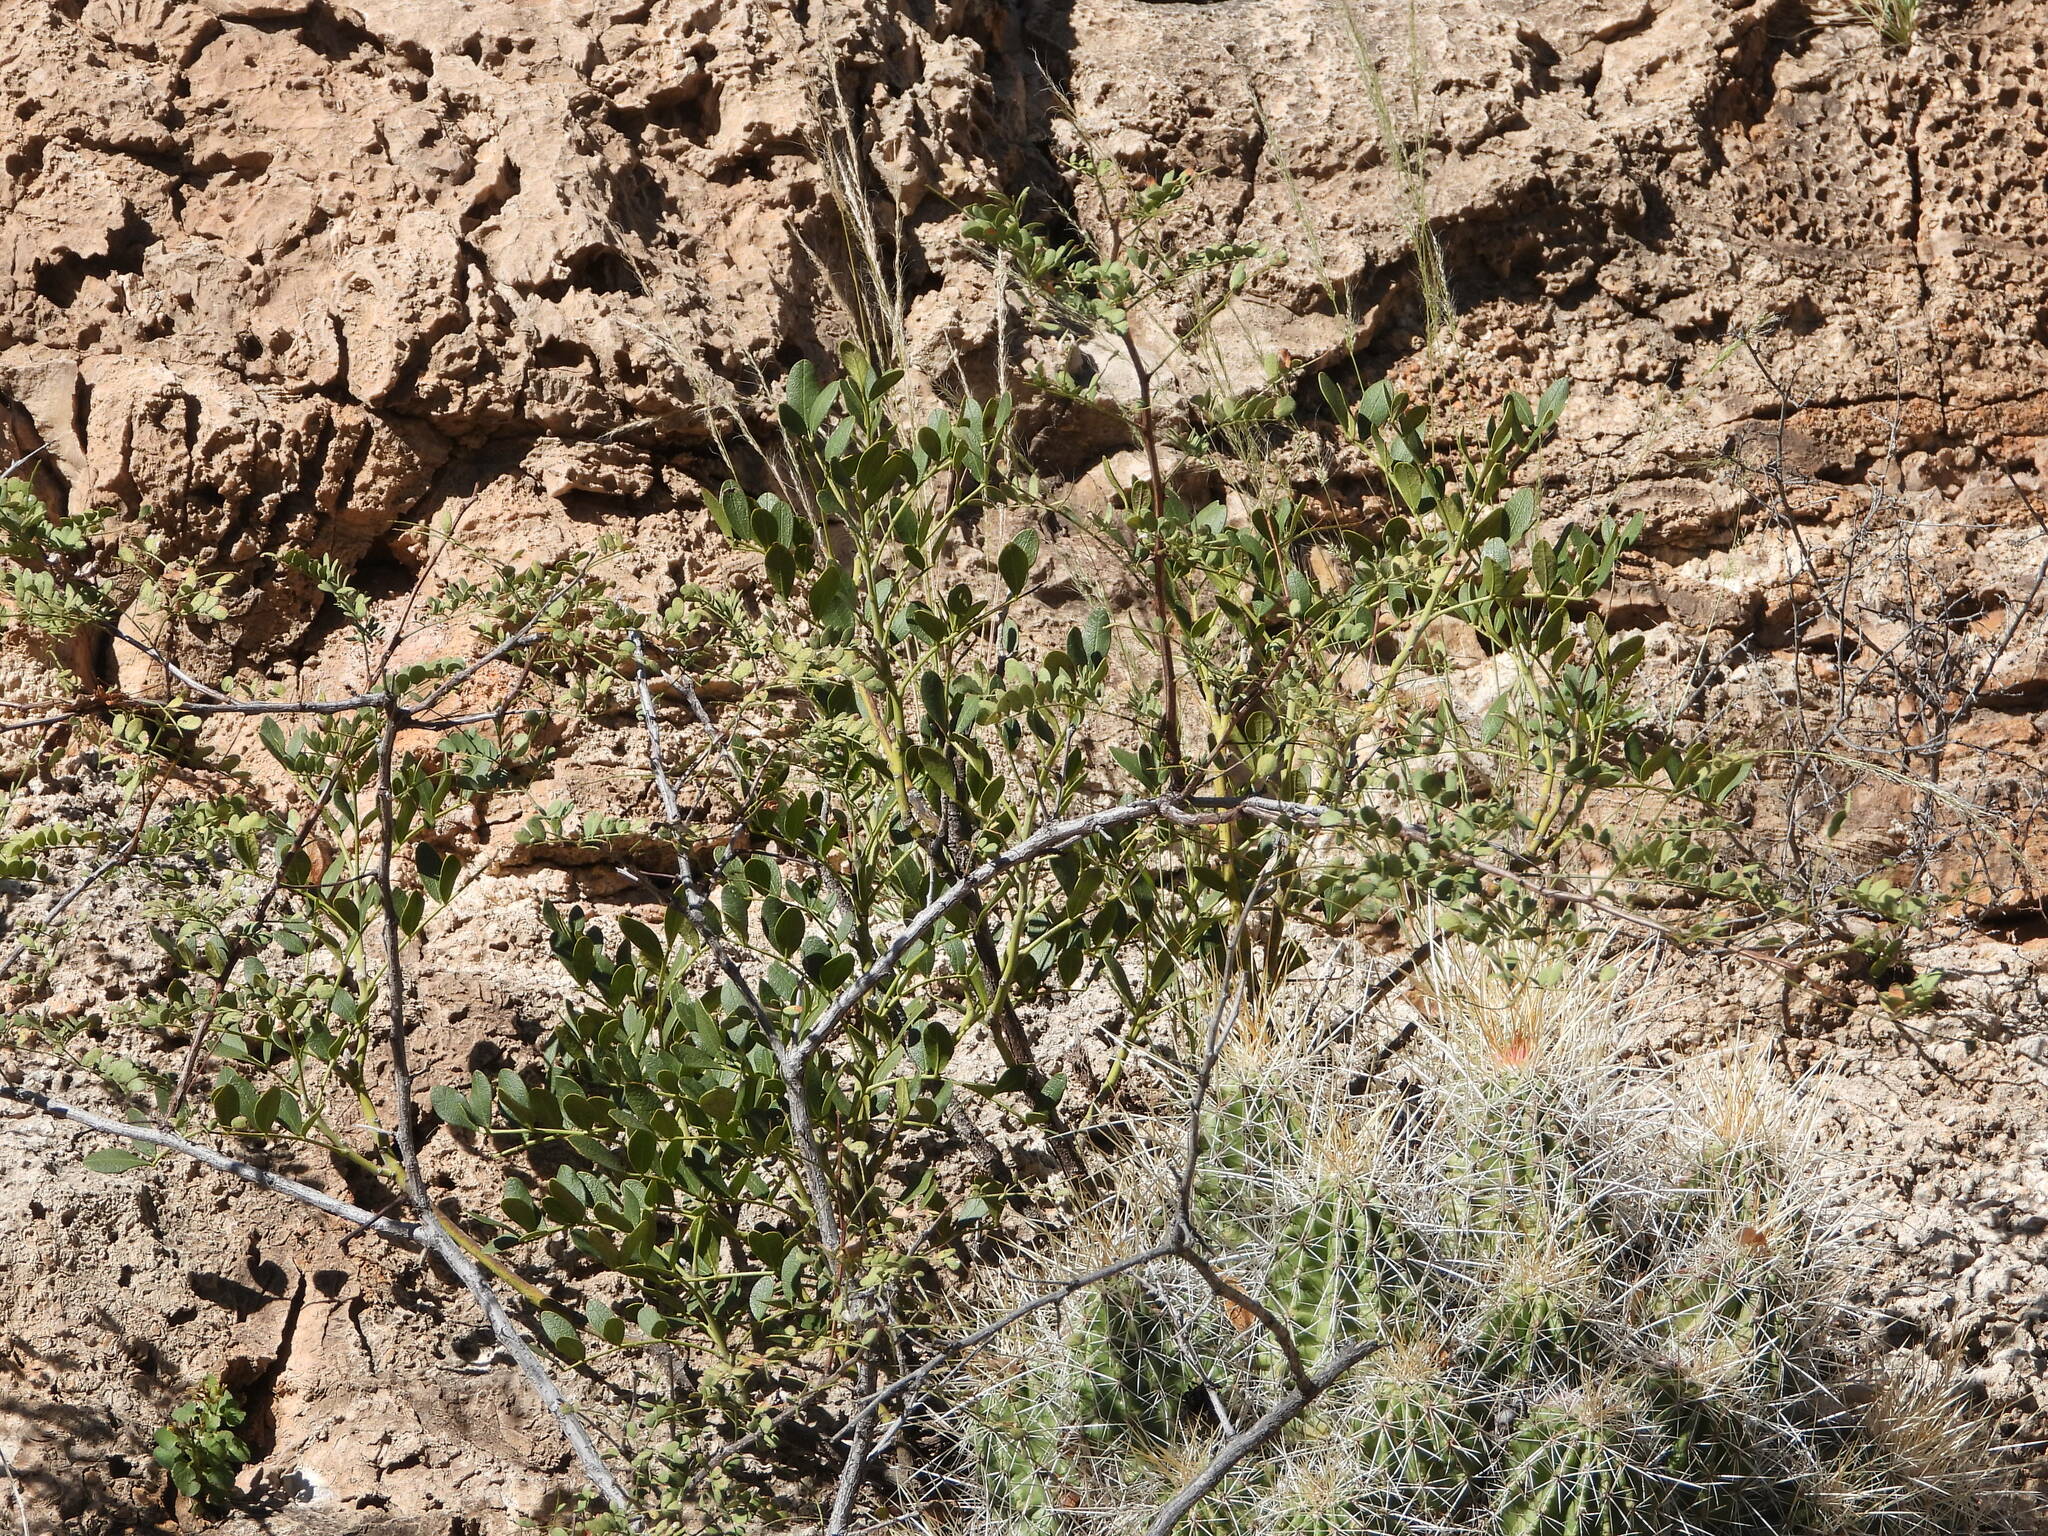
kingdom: Plantae
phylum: Tracheophyta
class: Magnoliopsida
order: Fabales
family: Fabaceae
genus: Dermatophyllum
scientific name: Dermatophyllum secundiflorum
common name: Texas-mountain-laurel
